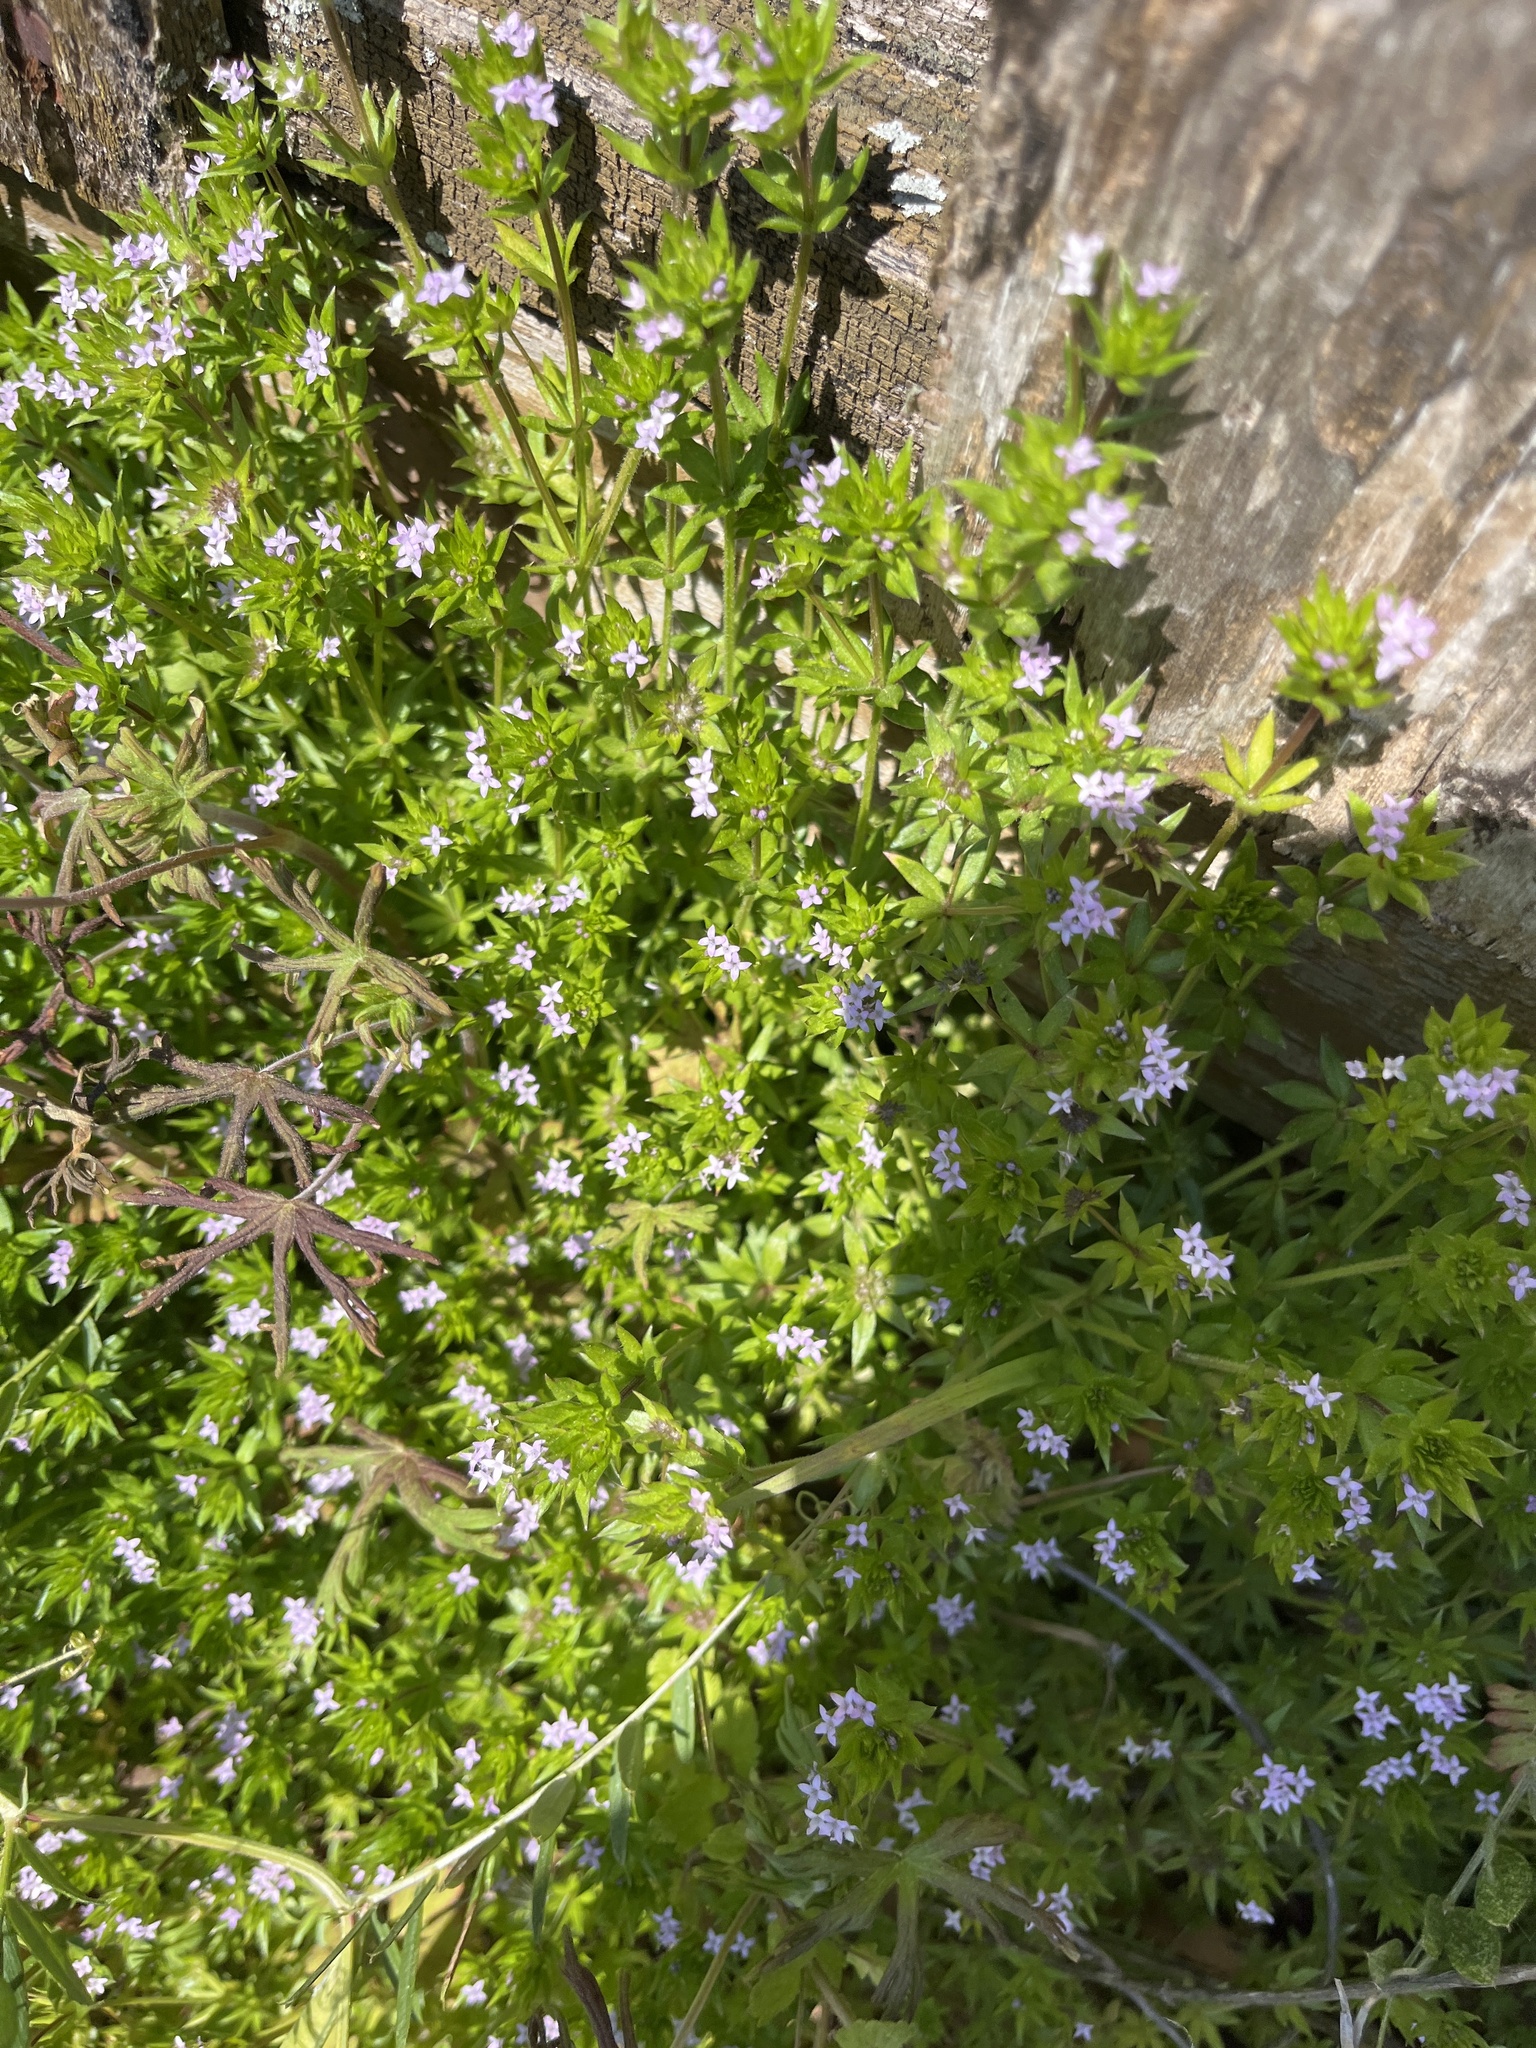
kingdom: Plantae
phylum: Tracheophyta
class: Magnoliopsida
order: Gentianales
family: Rubiaceae
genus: Sherardia
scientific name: Sherardia arvensis
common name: Field madder
